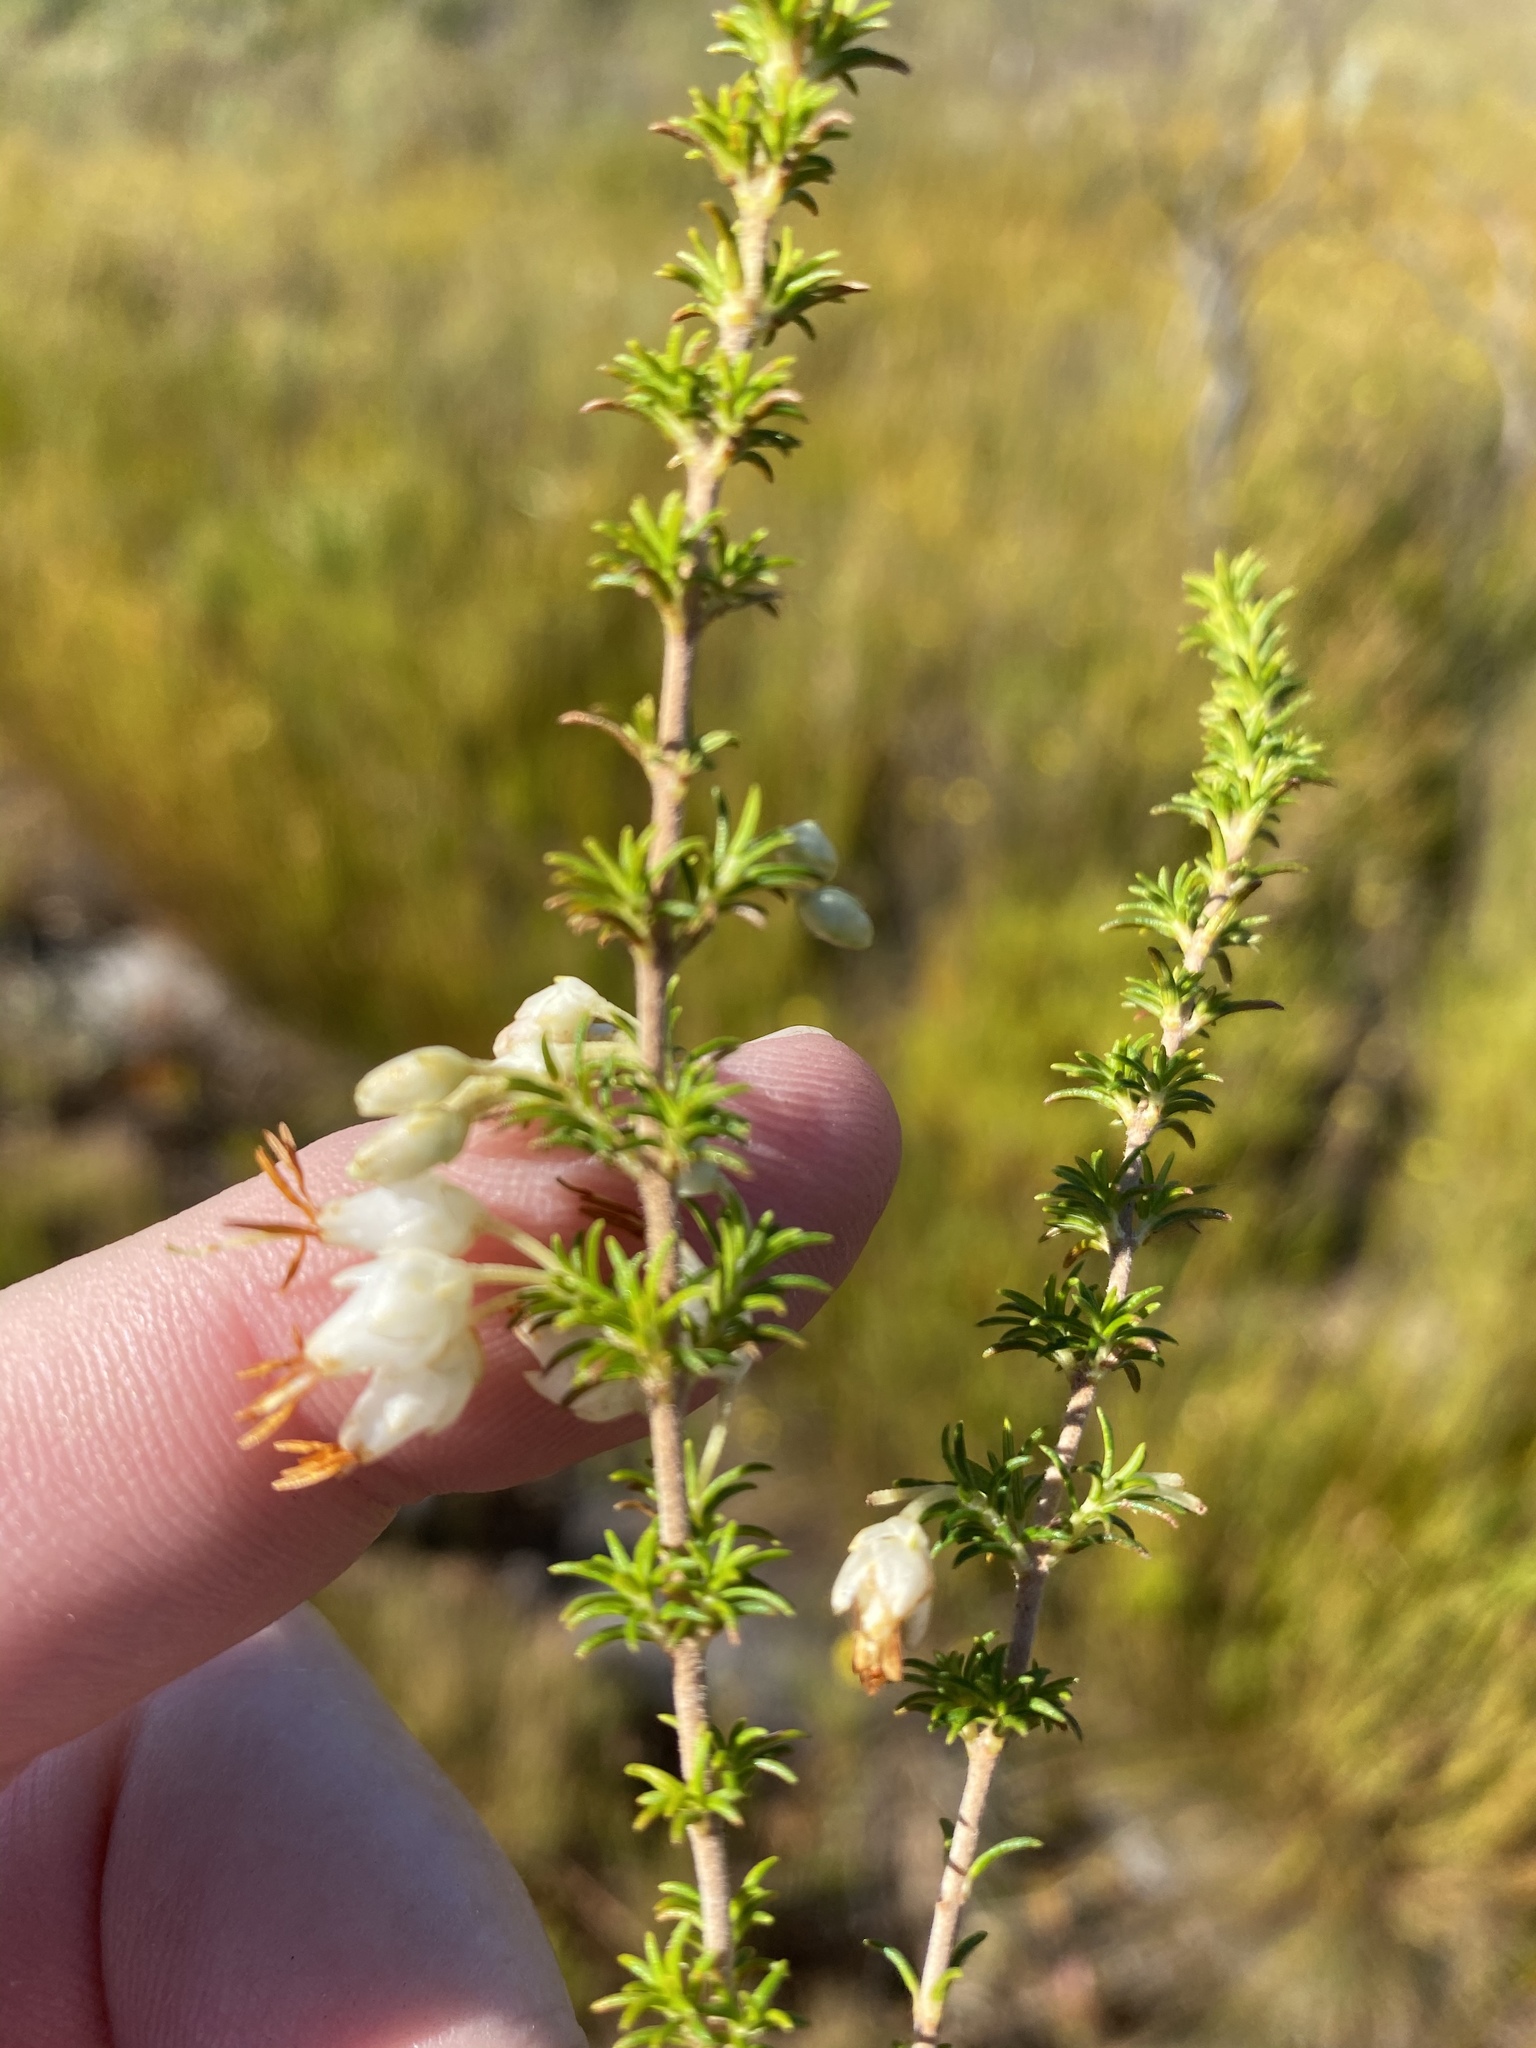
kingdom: Plantae
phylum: Tracheophyta
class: Magnoliopsida
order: Ericales
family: Ericaceae
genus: Erica
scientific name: Erica intermedia
